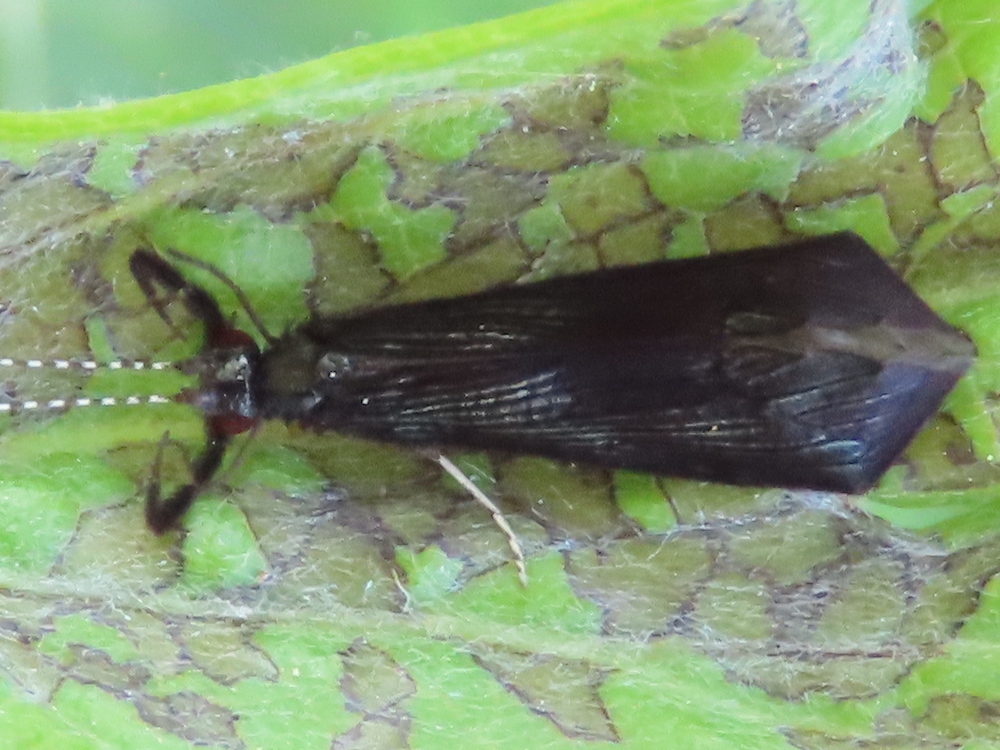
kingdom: Animalia
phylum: Arthropoda
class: Insecta
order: Trichoptera
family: Leptoceridae
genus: Mystacides
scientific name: Mystacides sepulchralis
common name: Black dancer caddisfly
